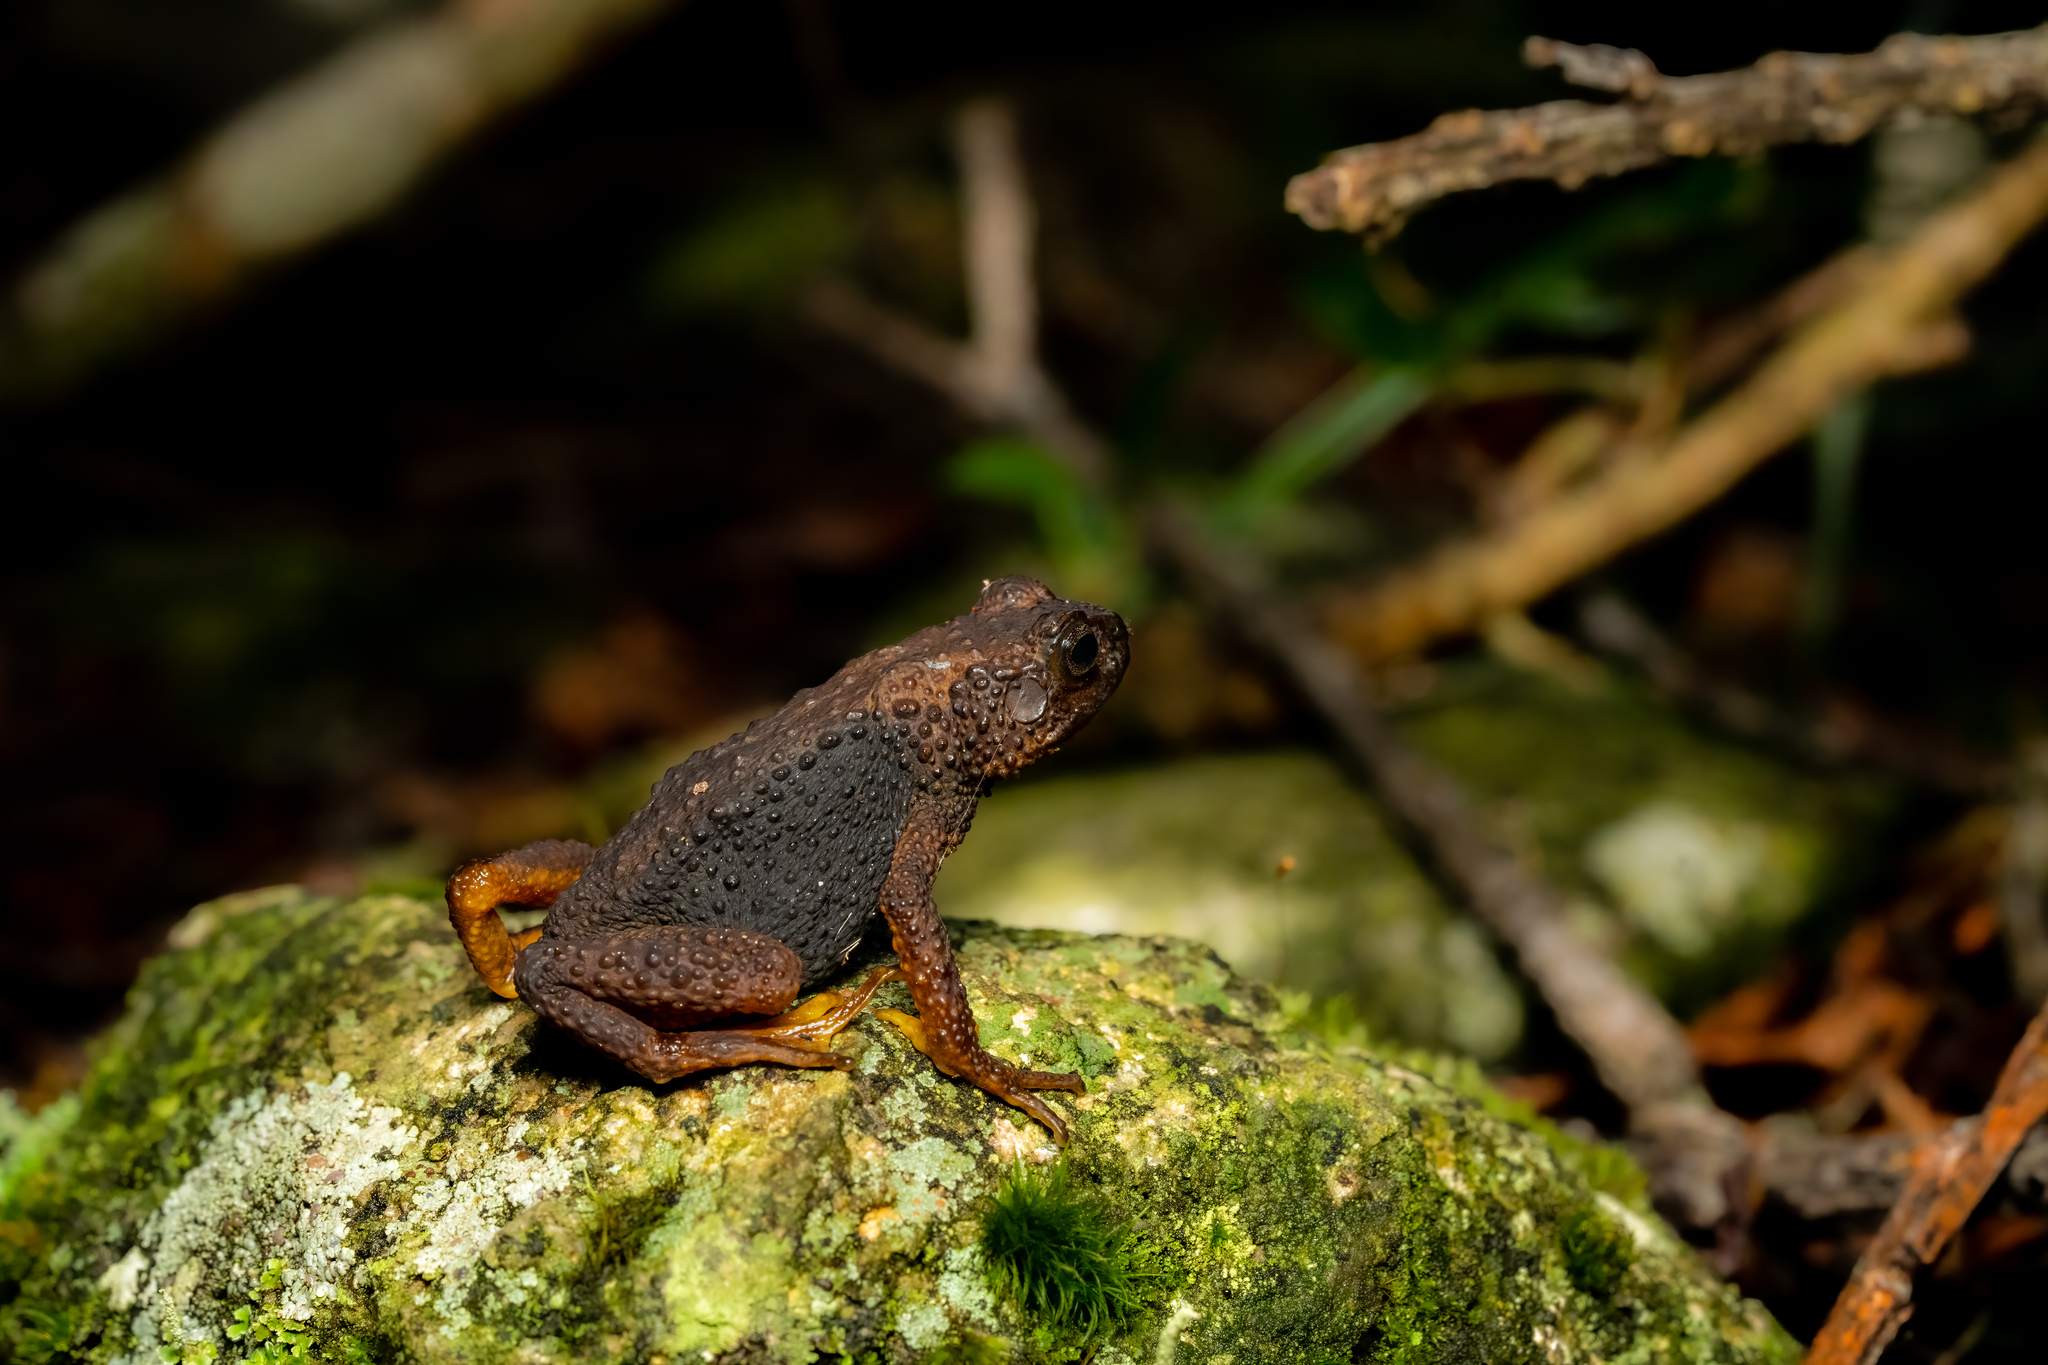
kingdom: Animalia
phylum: Chordata
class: Amphibia
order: Anura
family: Bufonidae
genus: Ansonia
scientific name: Ansonia fuliginea
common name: Montane slender toad
